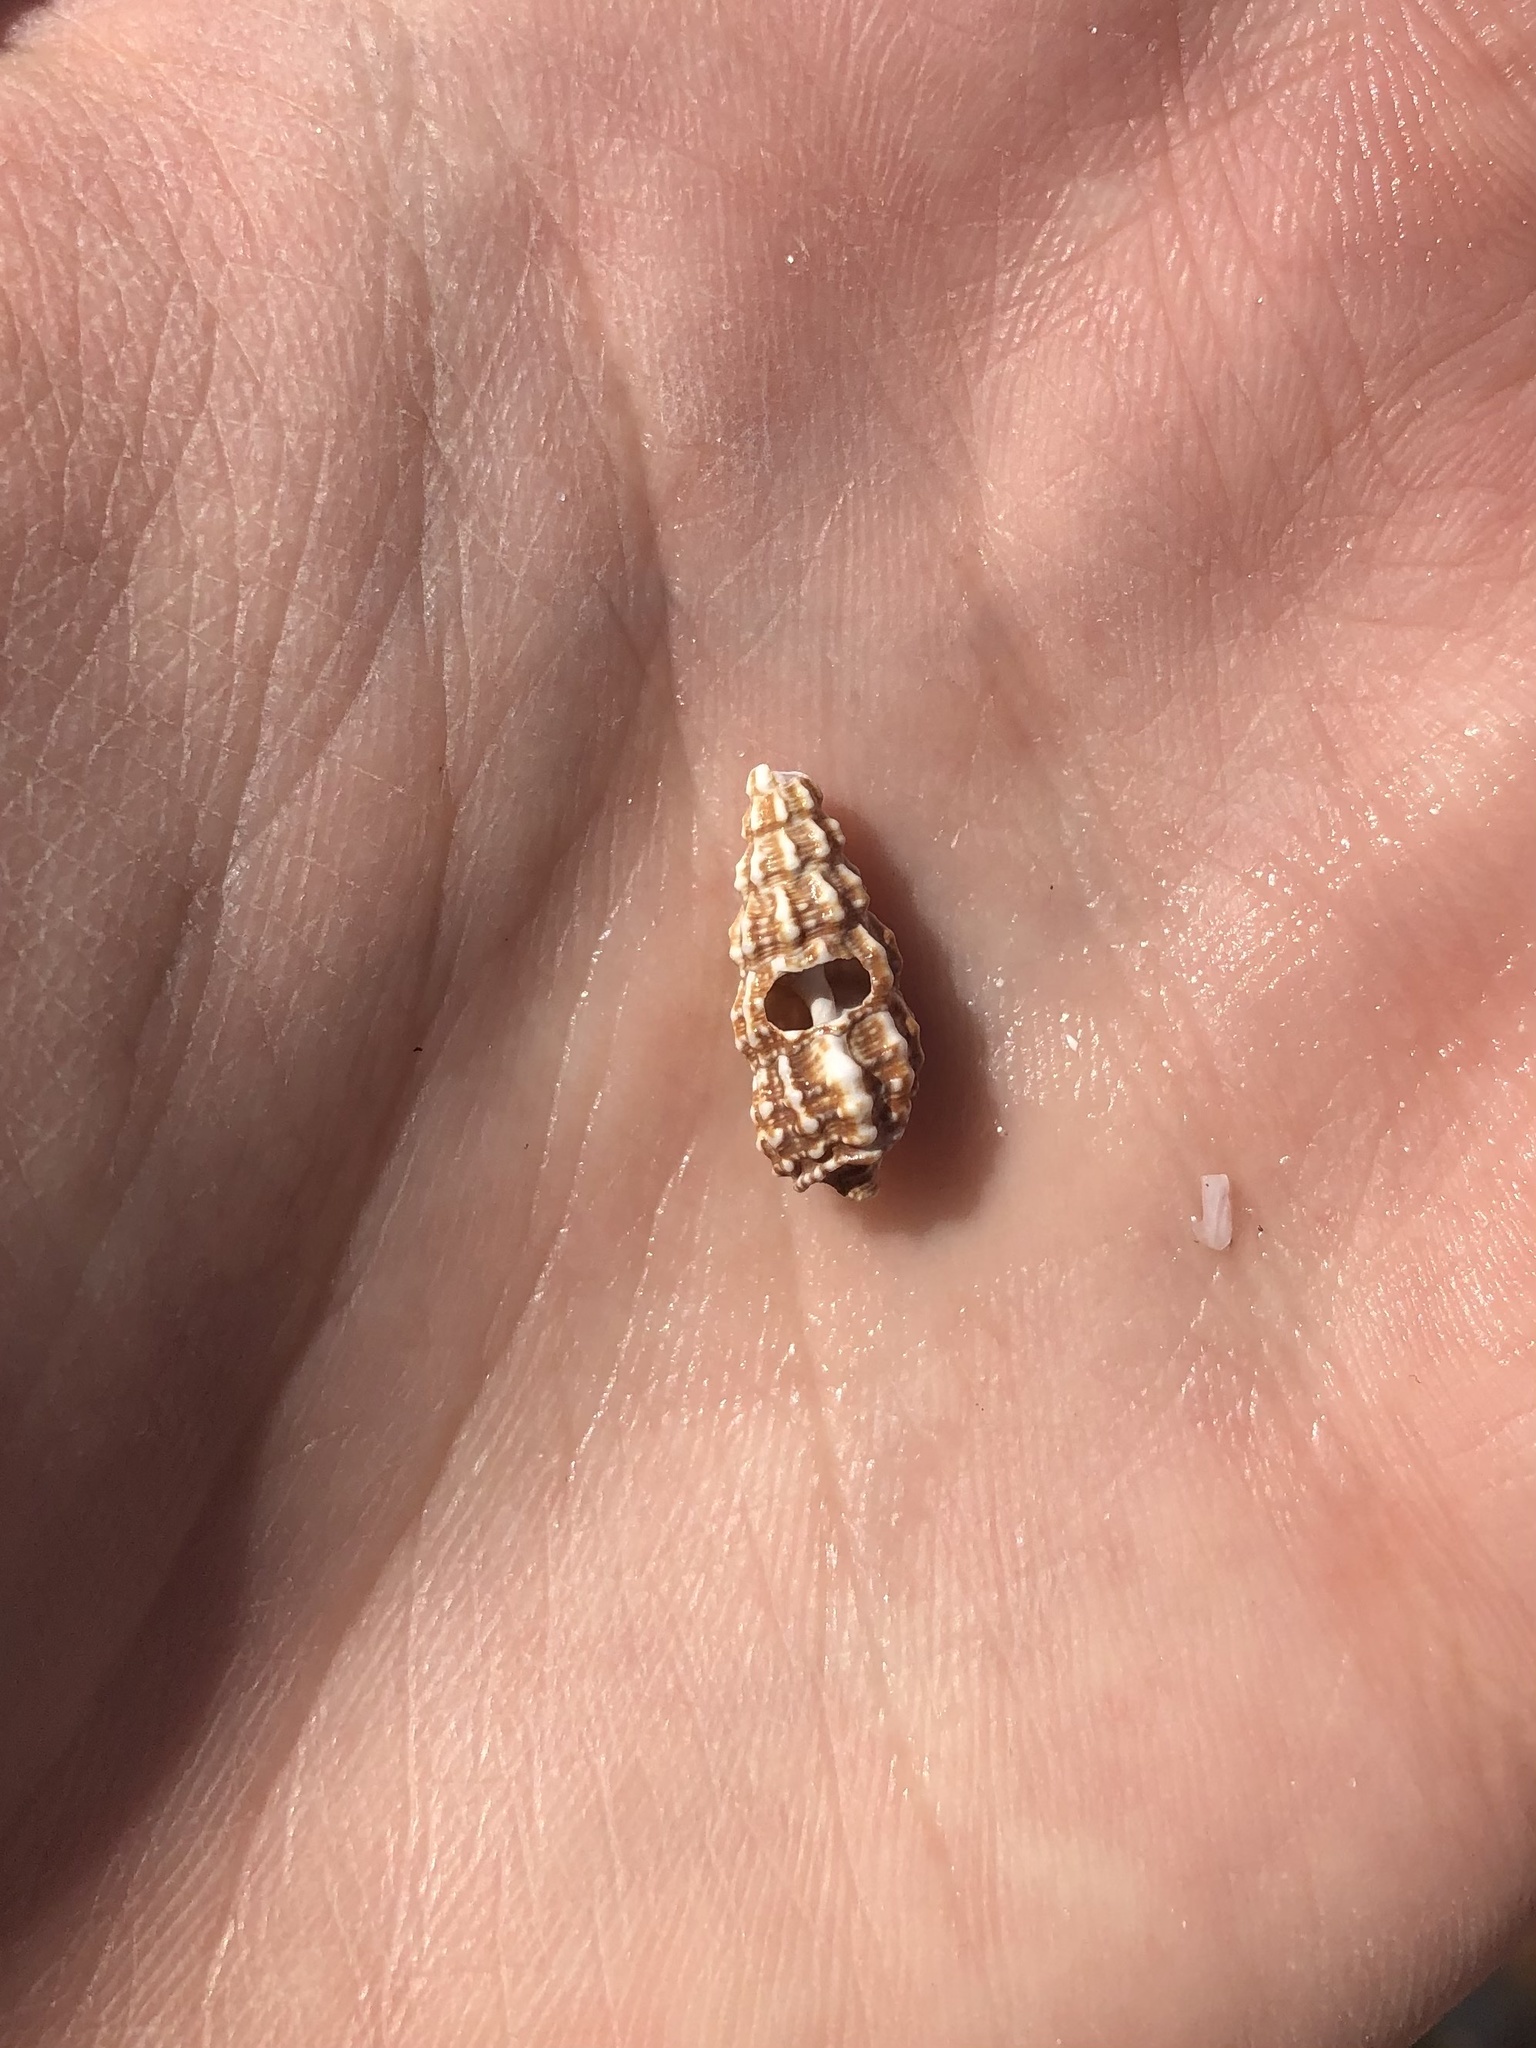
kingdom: Animalia
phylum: Mollusca
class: Gastropoda
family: Cerithiidae
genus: Cerithium
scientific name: Cerithium muscarum
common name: Fly-specked cerith
